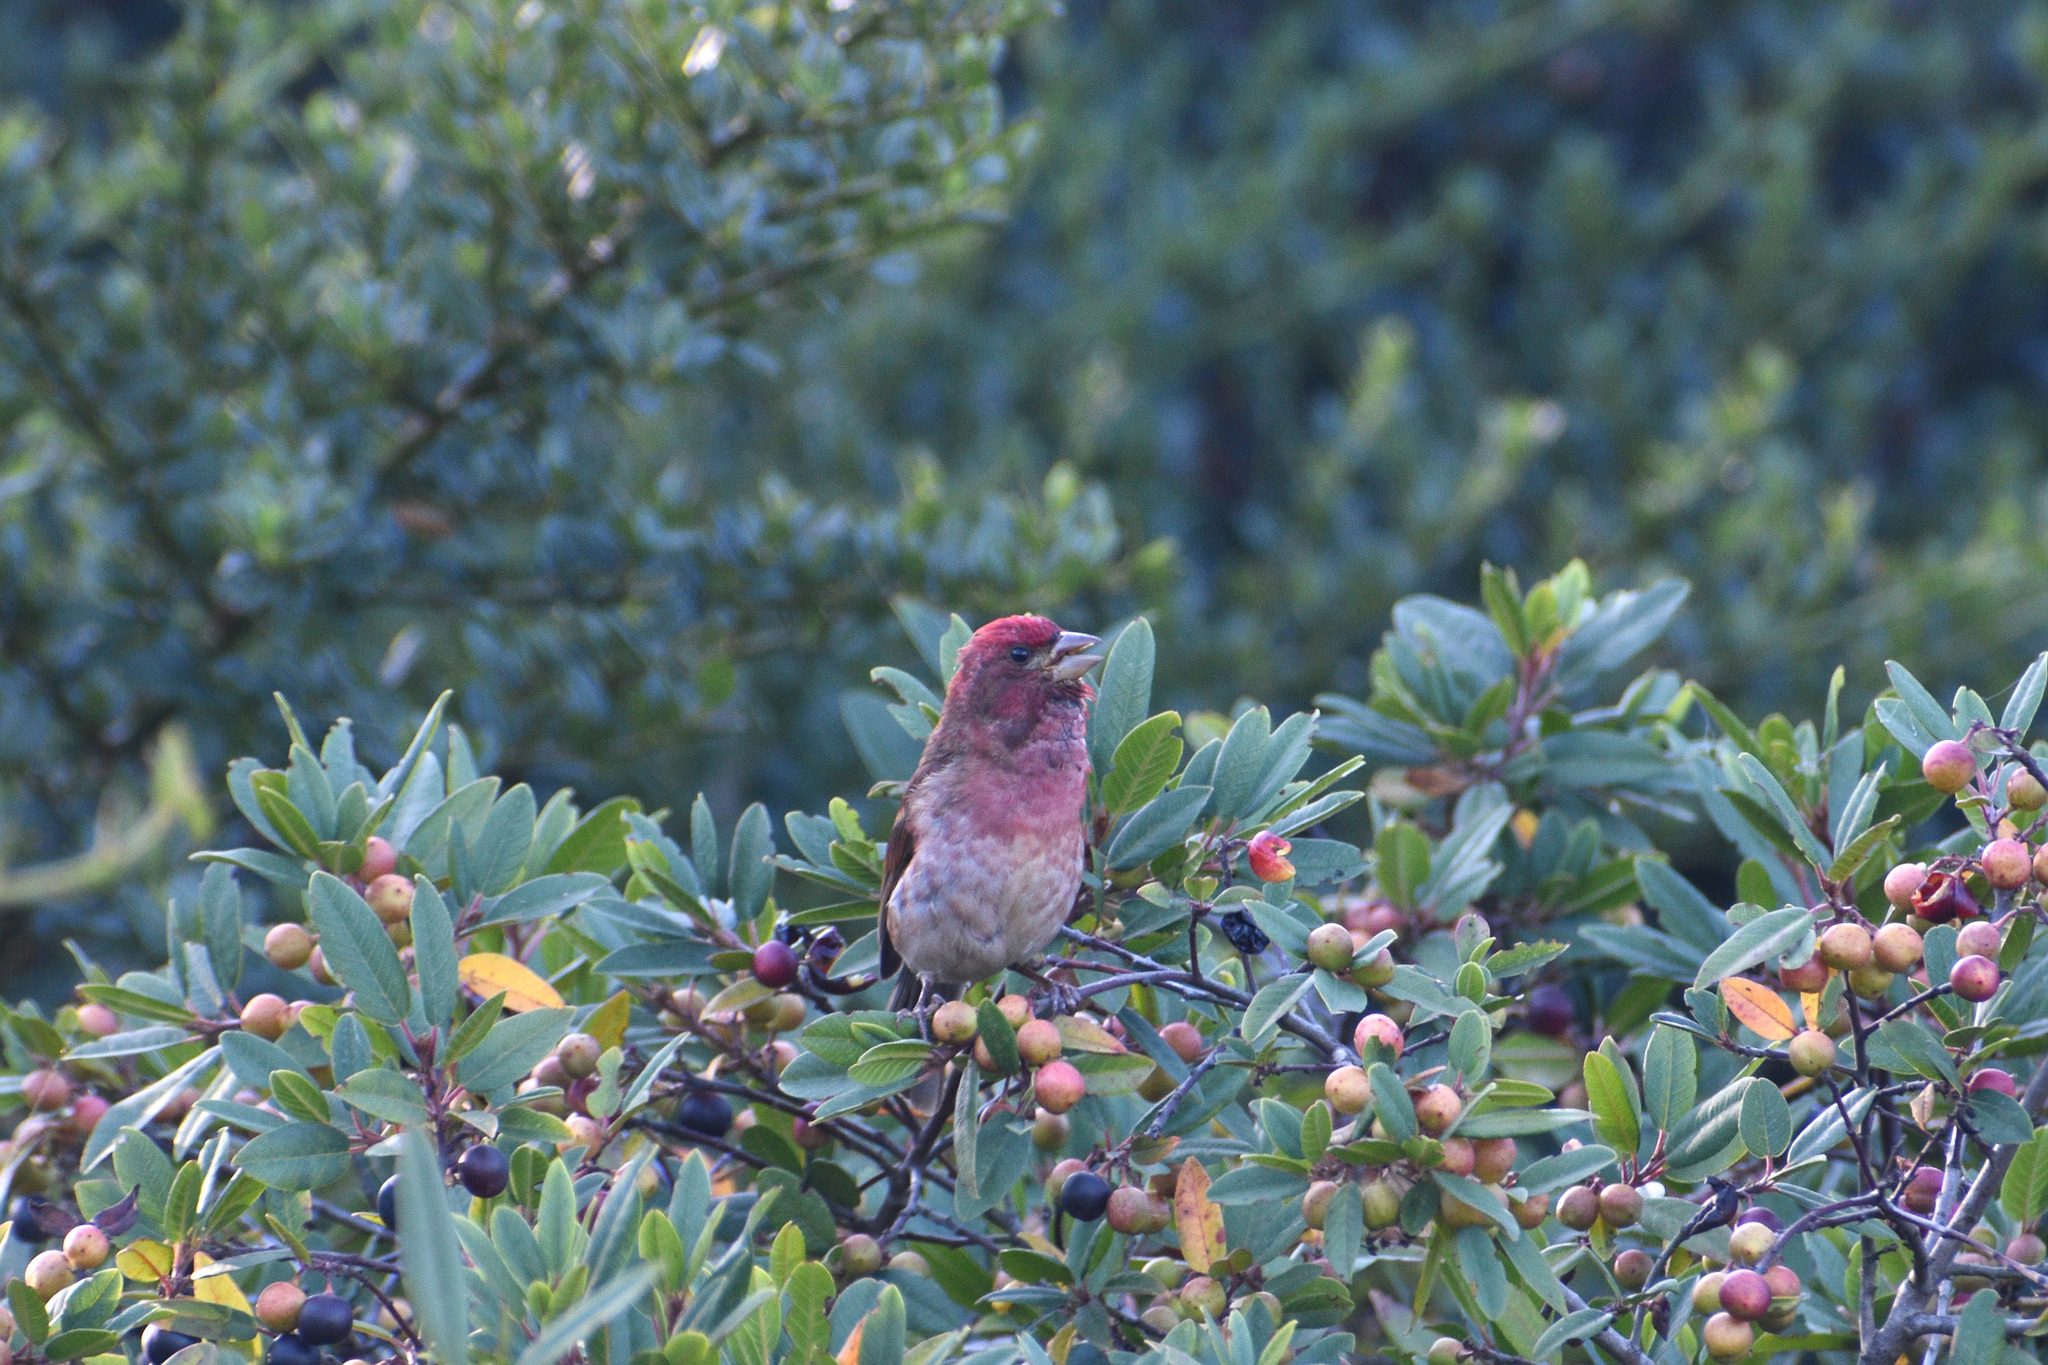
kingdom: Animalia
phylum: Chordata
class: Aves
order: Passeriformes
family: Fringillidae
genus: Haemorhous
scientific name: Haemorhous purpureus
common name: Purple finch
